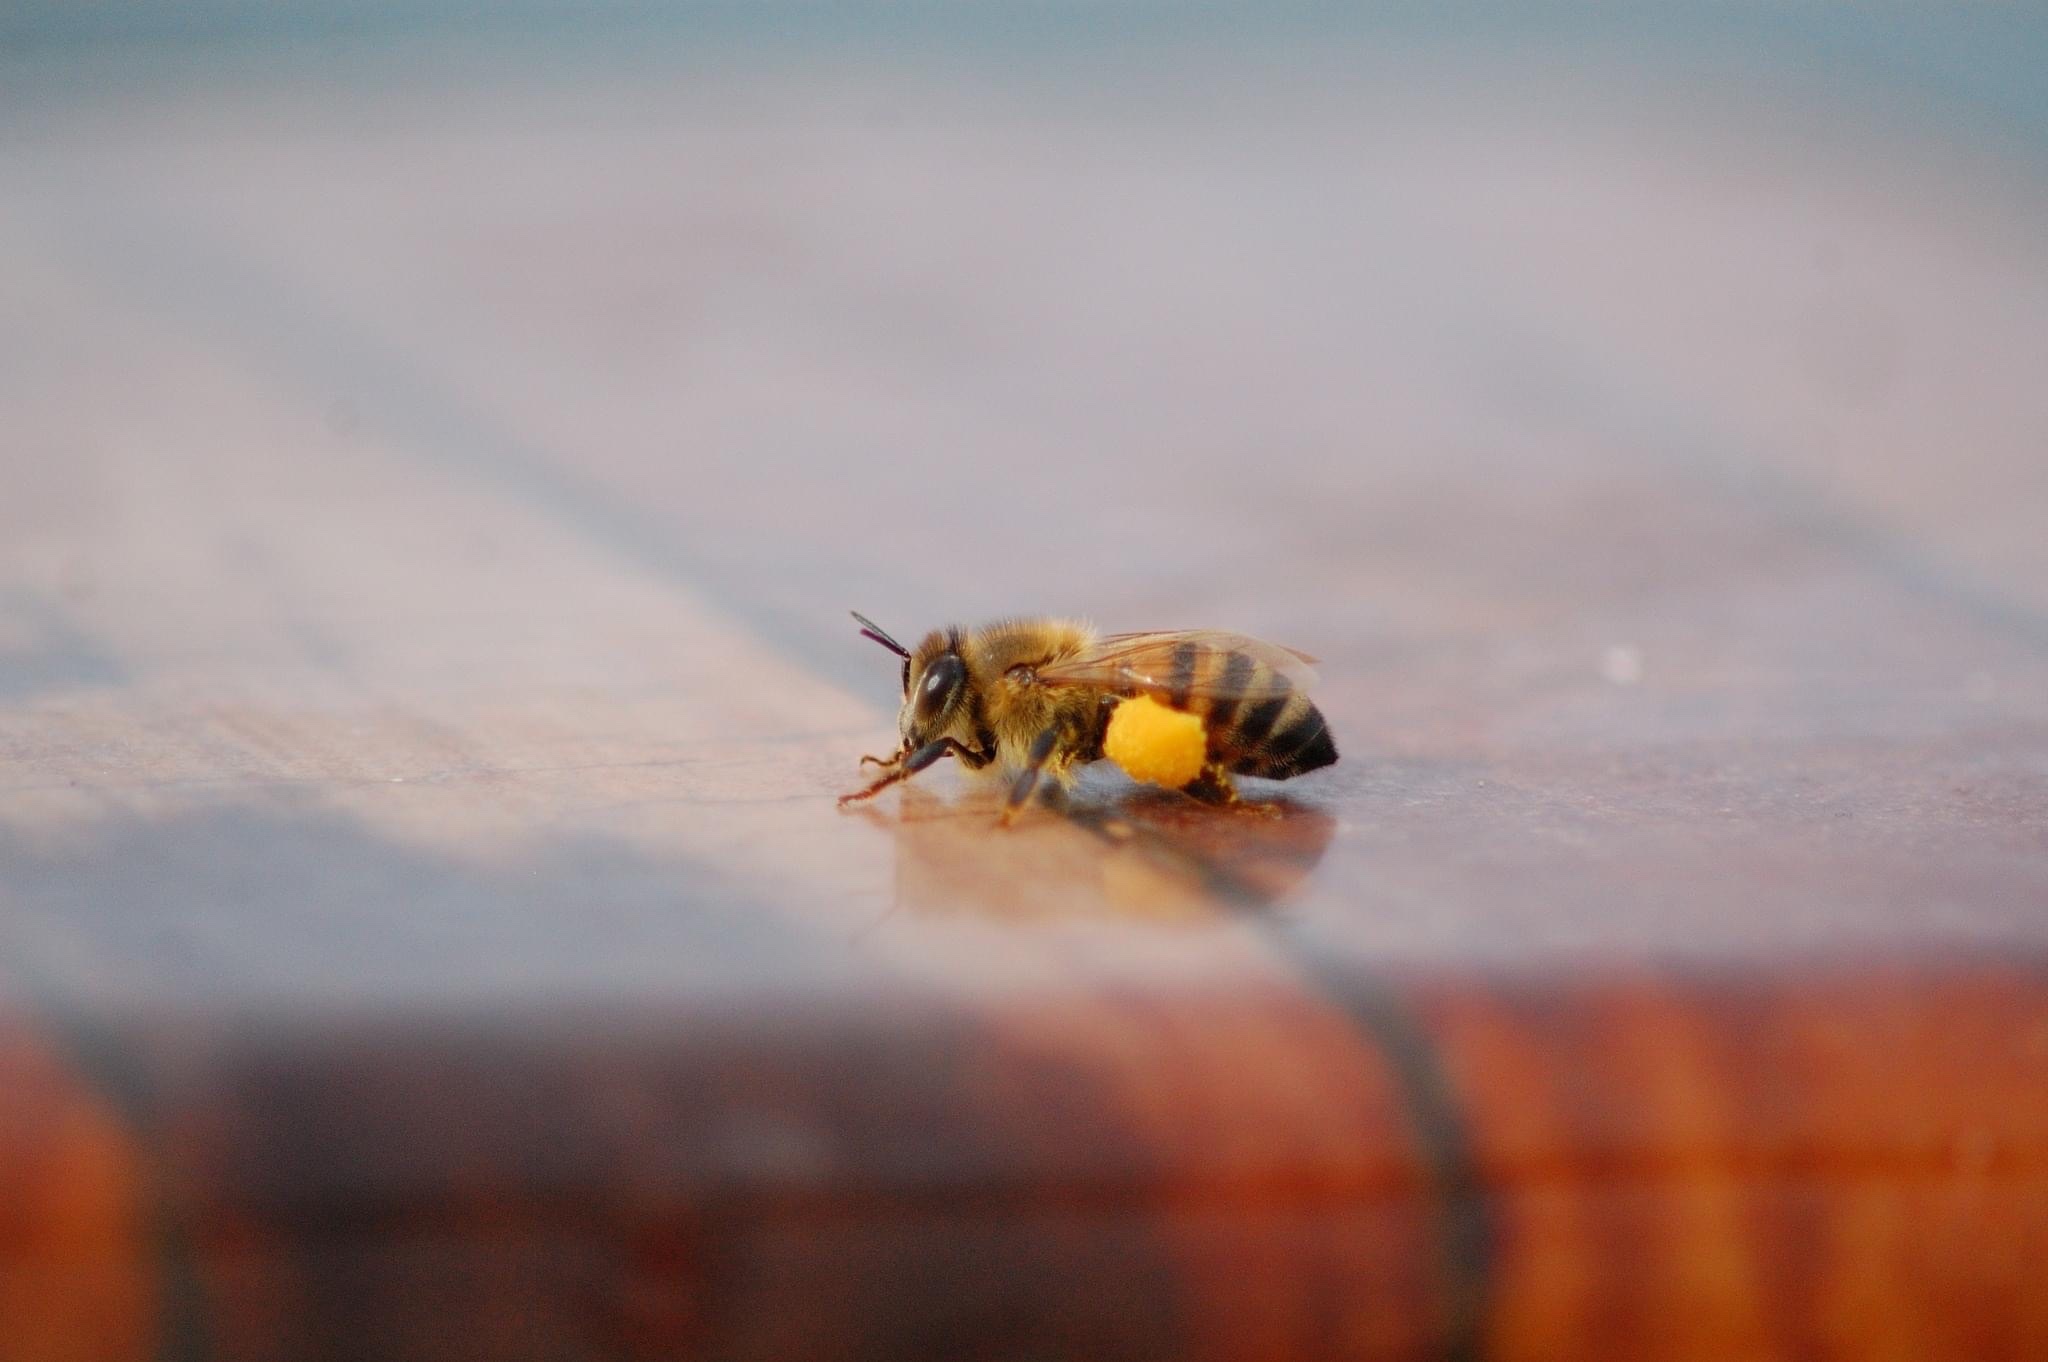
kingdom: Animalia
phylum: Arthropoda
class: Insecta
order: Hymenoptera
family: Apidae
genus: Apis
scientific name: Apis mellifera
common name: Honey bee
